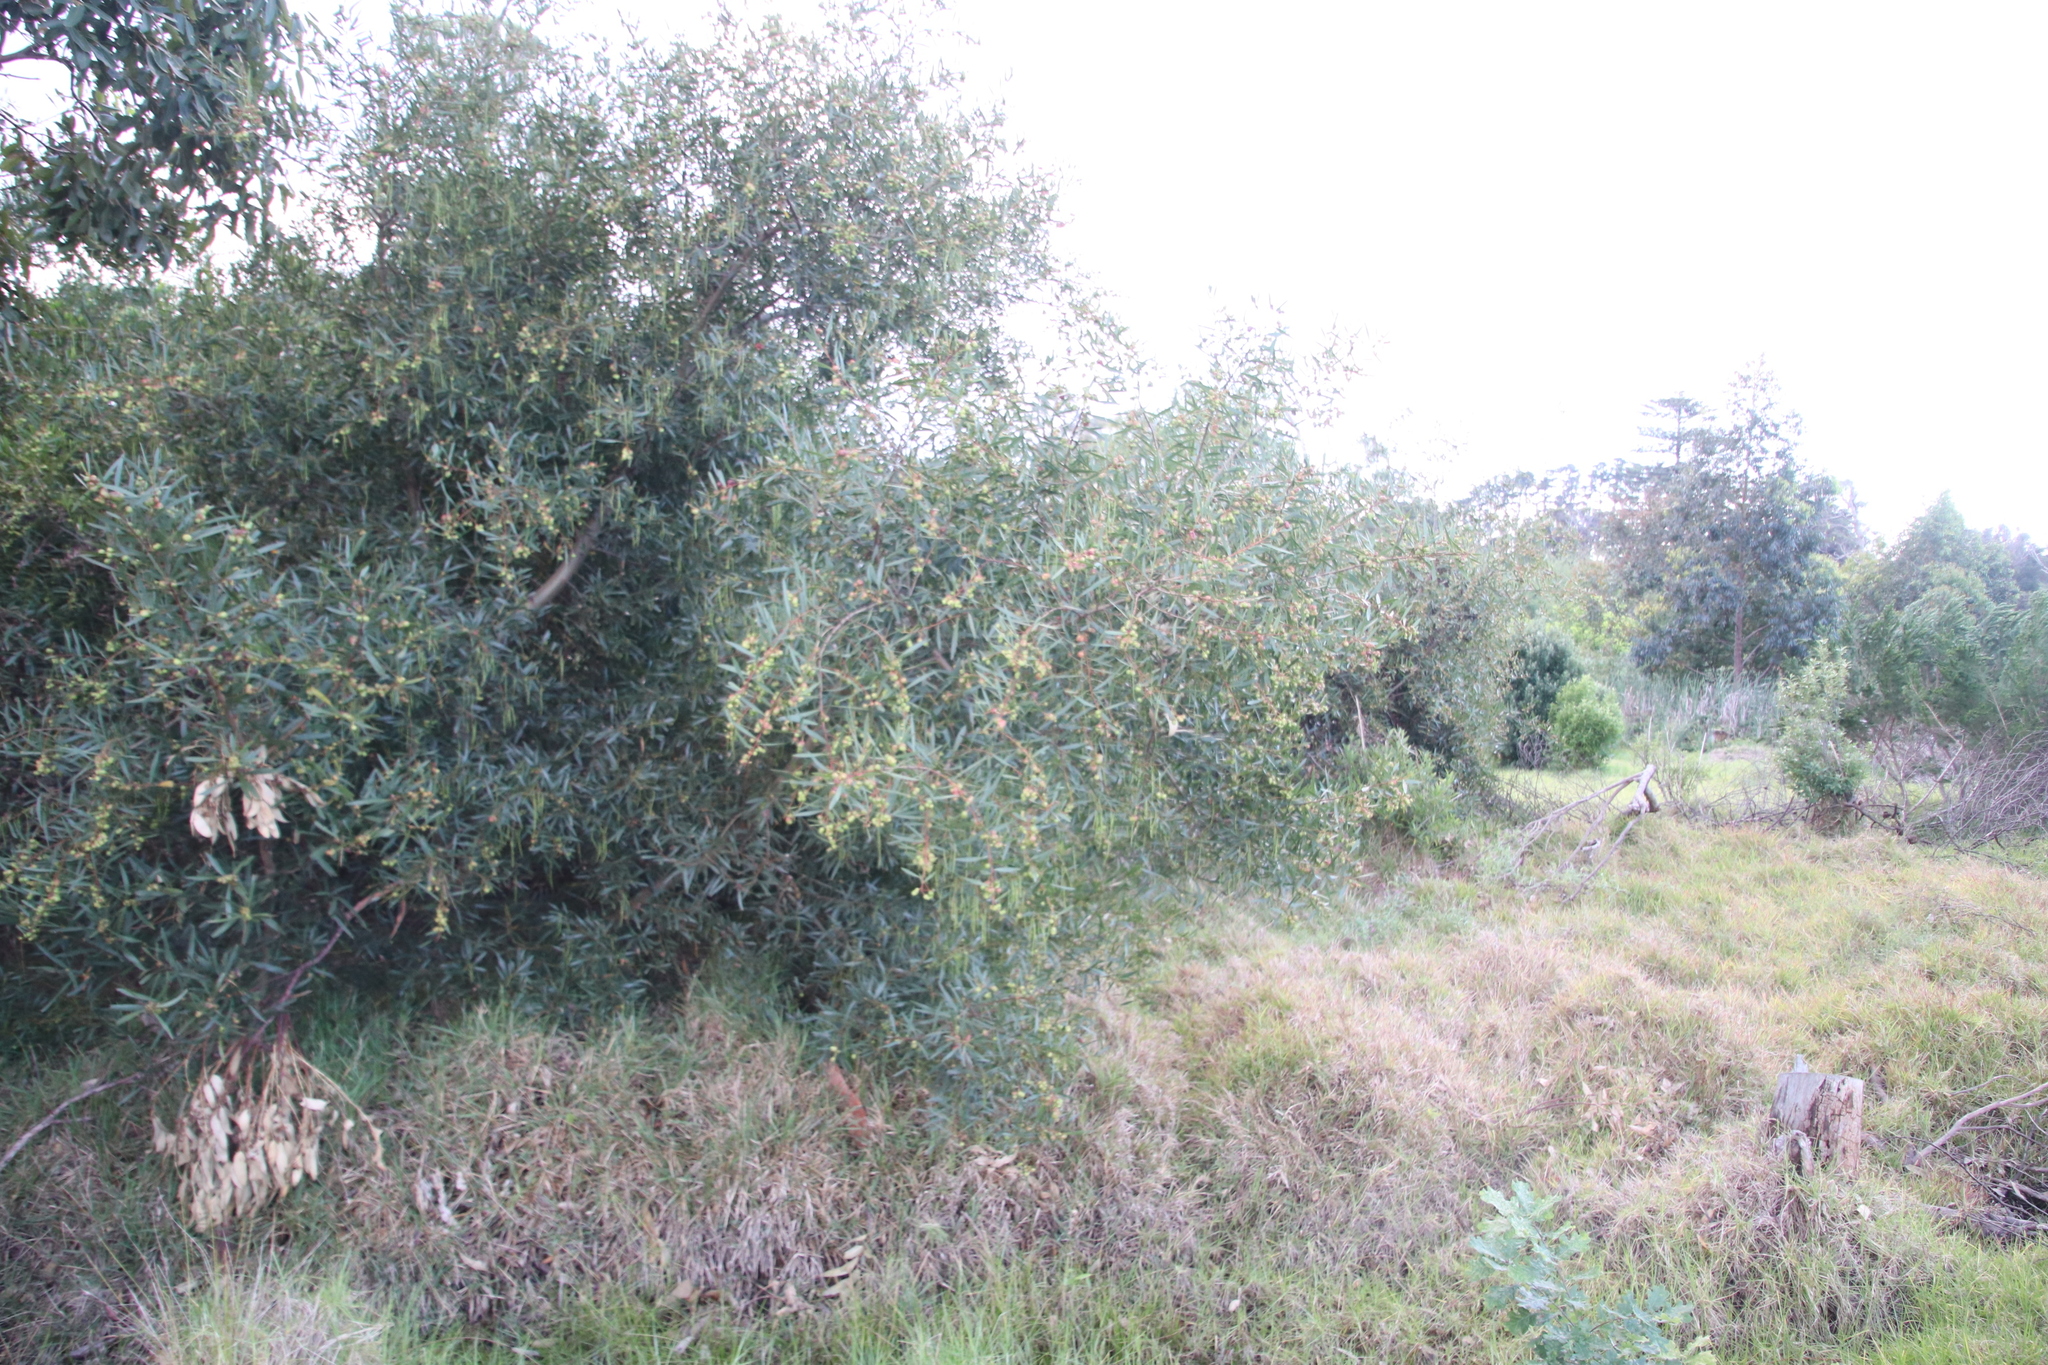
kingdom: Plantae
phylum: Tracheophyta
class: Magnoliopsida
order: Fabales
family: Fabaceae
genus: Acacia
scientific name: Acacia longifolia
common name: Sydney golden wattle
